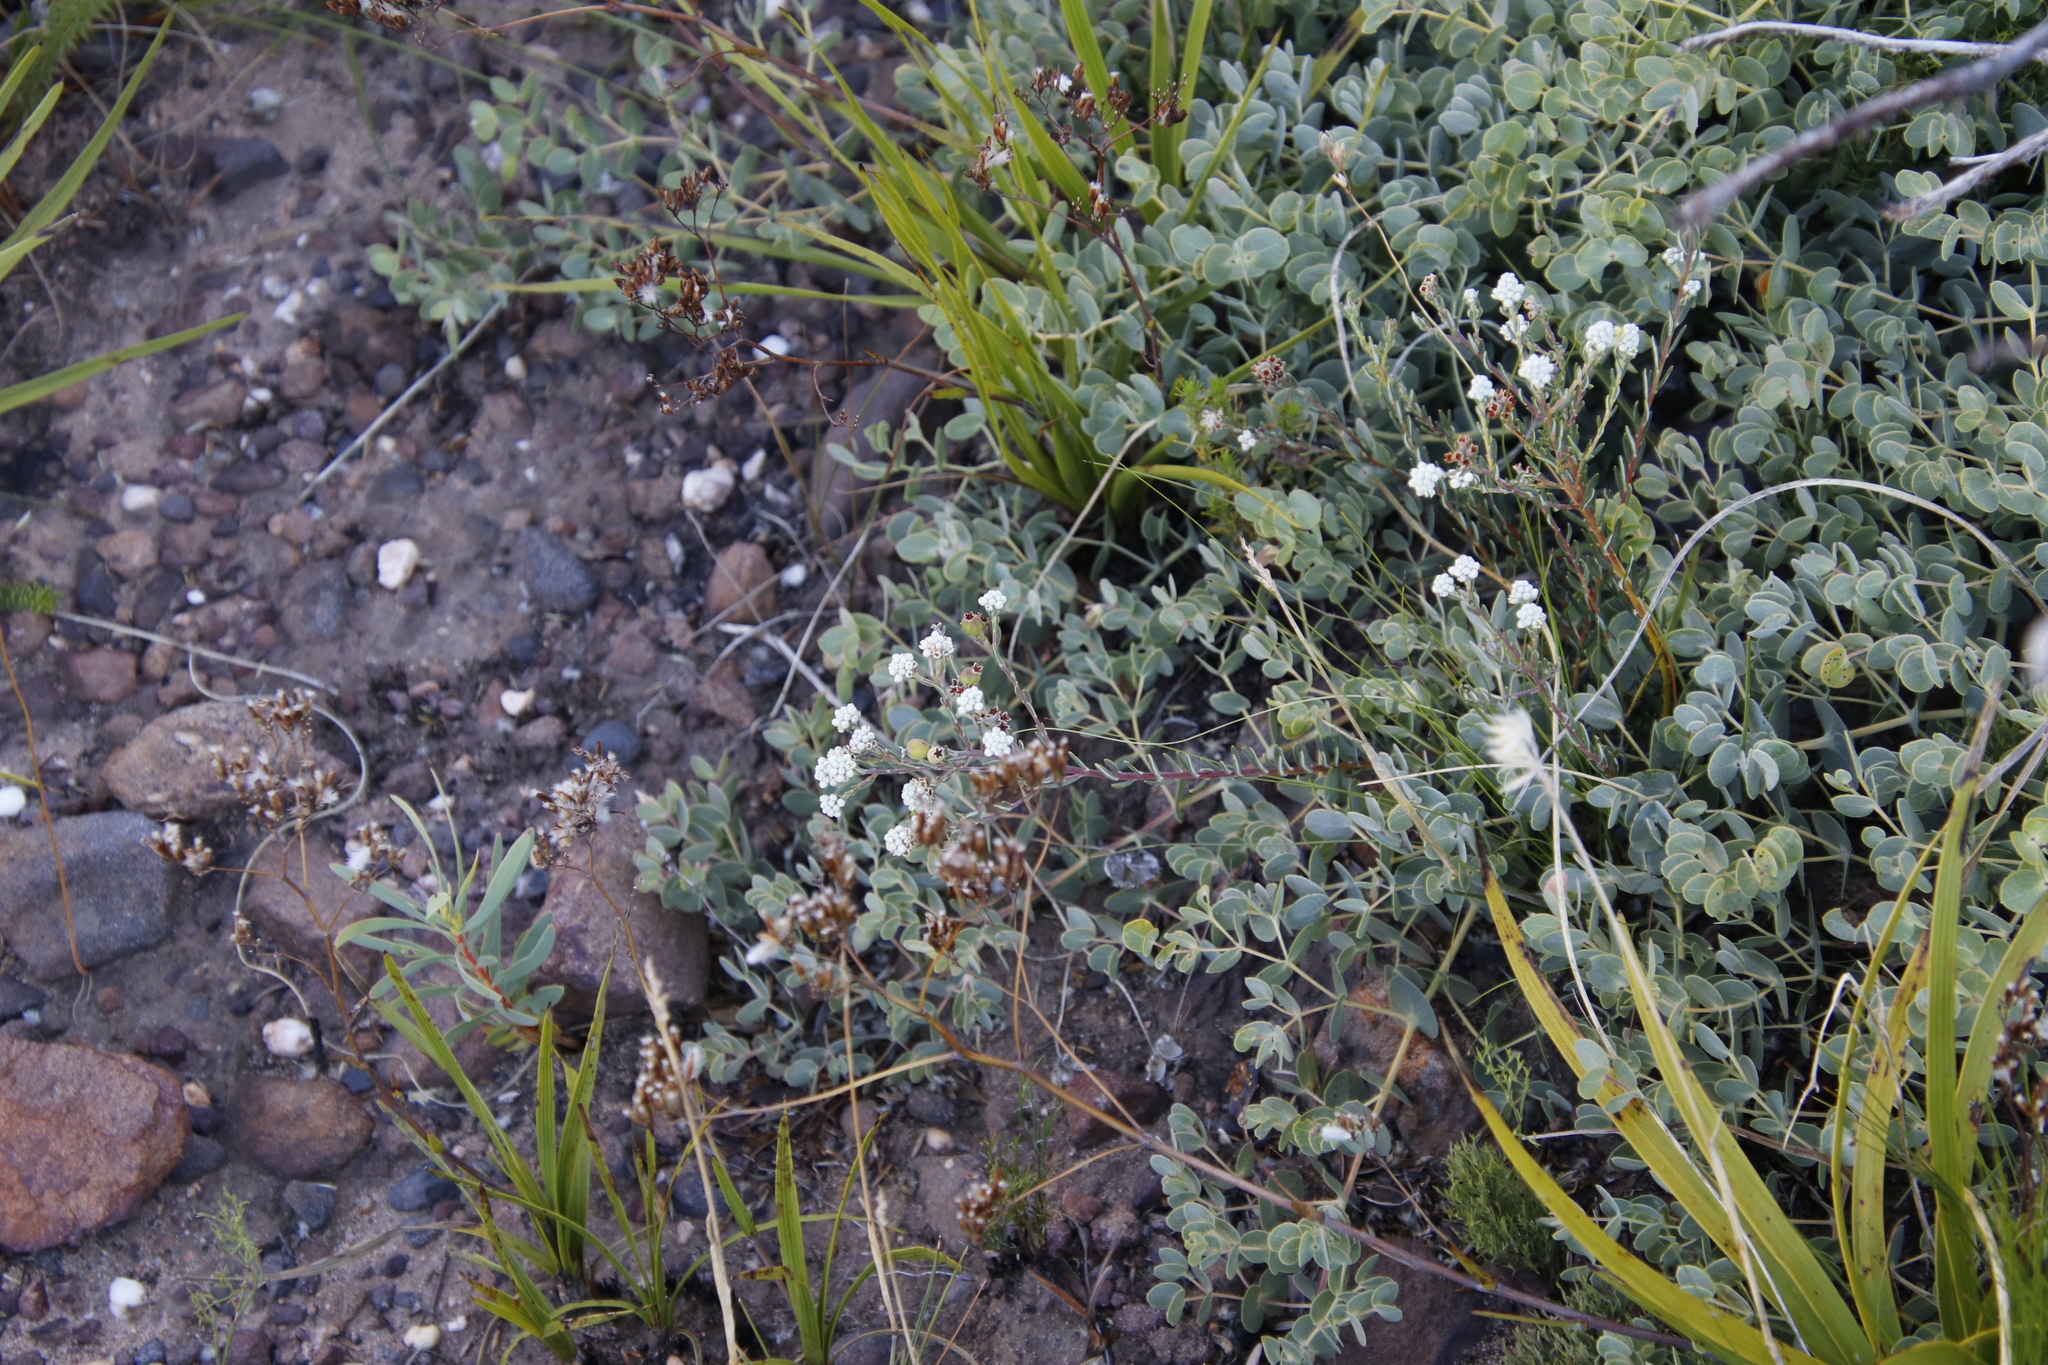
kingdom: Plantae
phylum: Tracheophyta
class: Magnoliopsida
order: Rosales
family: Rhamnaceae
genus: Phylica
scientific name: Phylica imberbis
